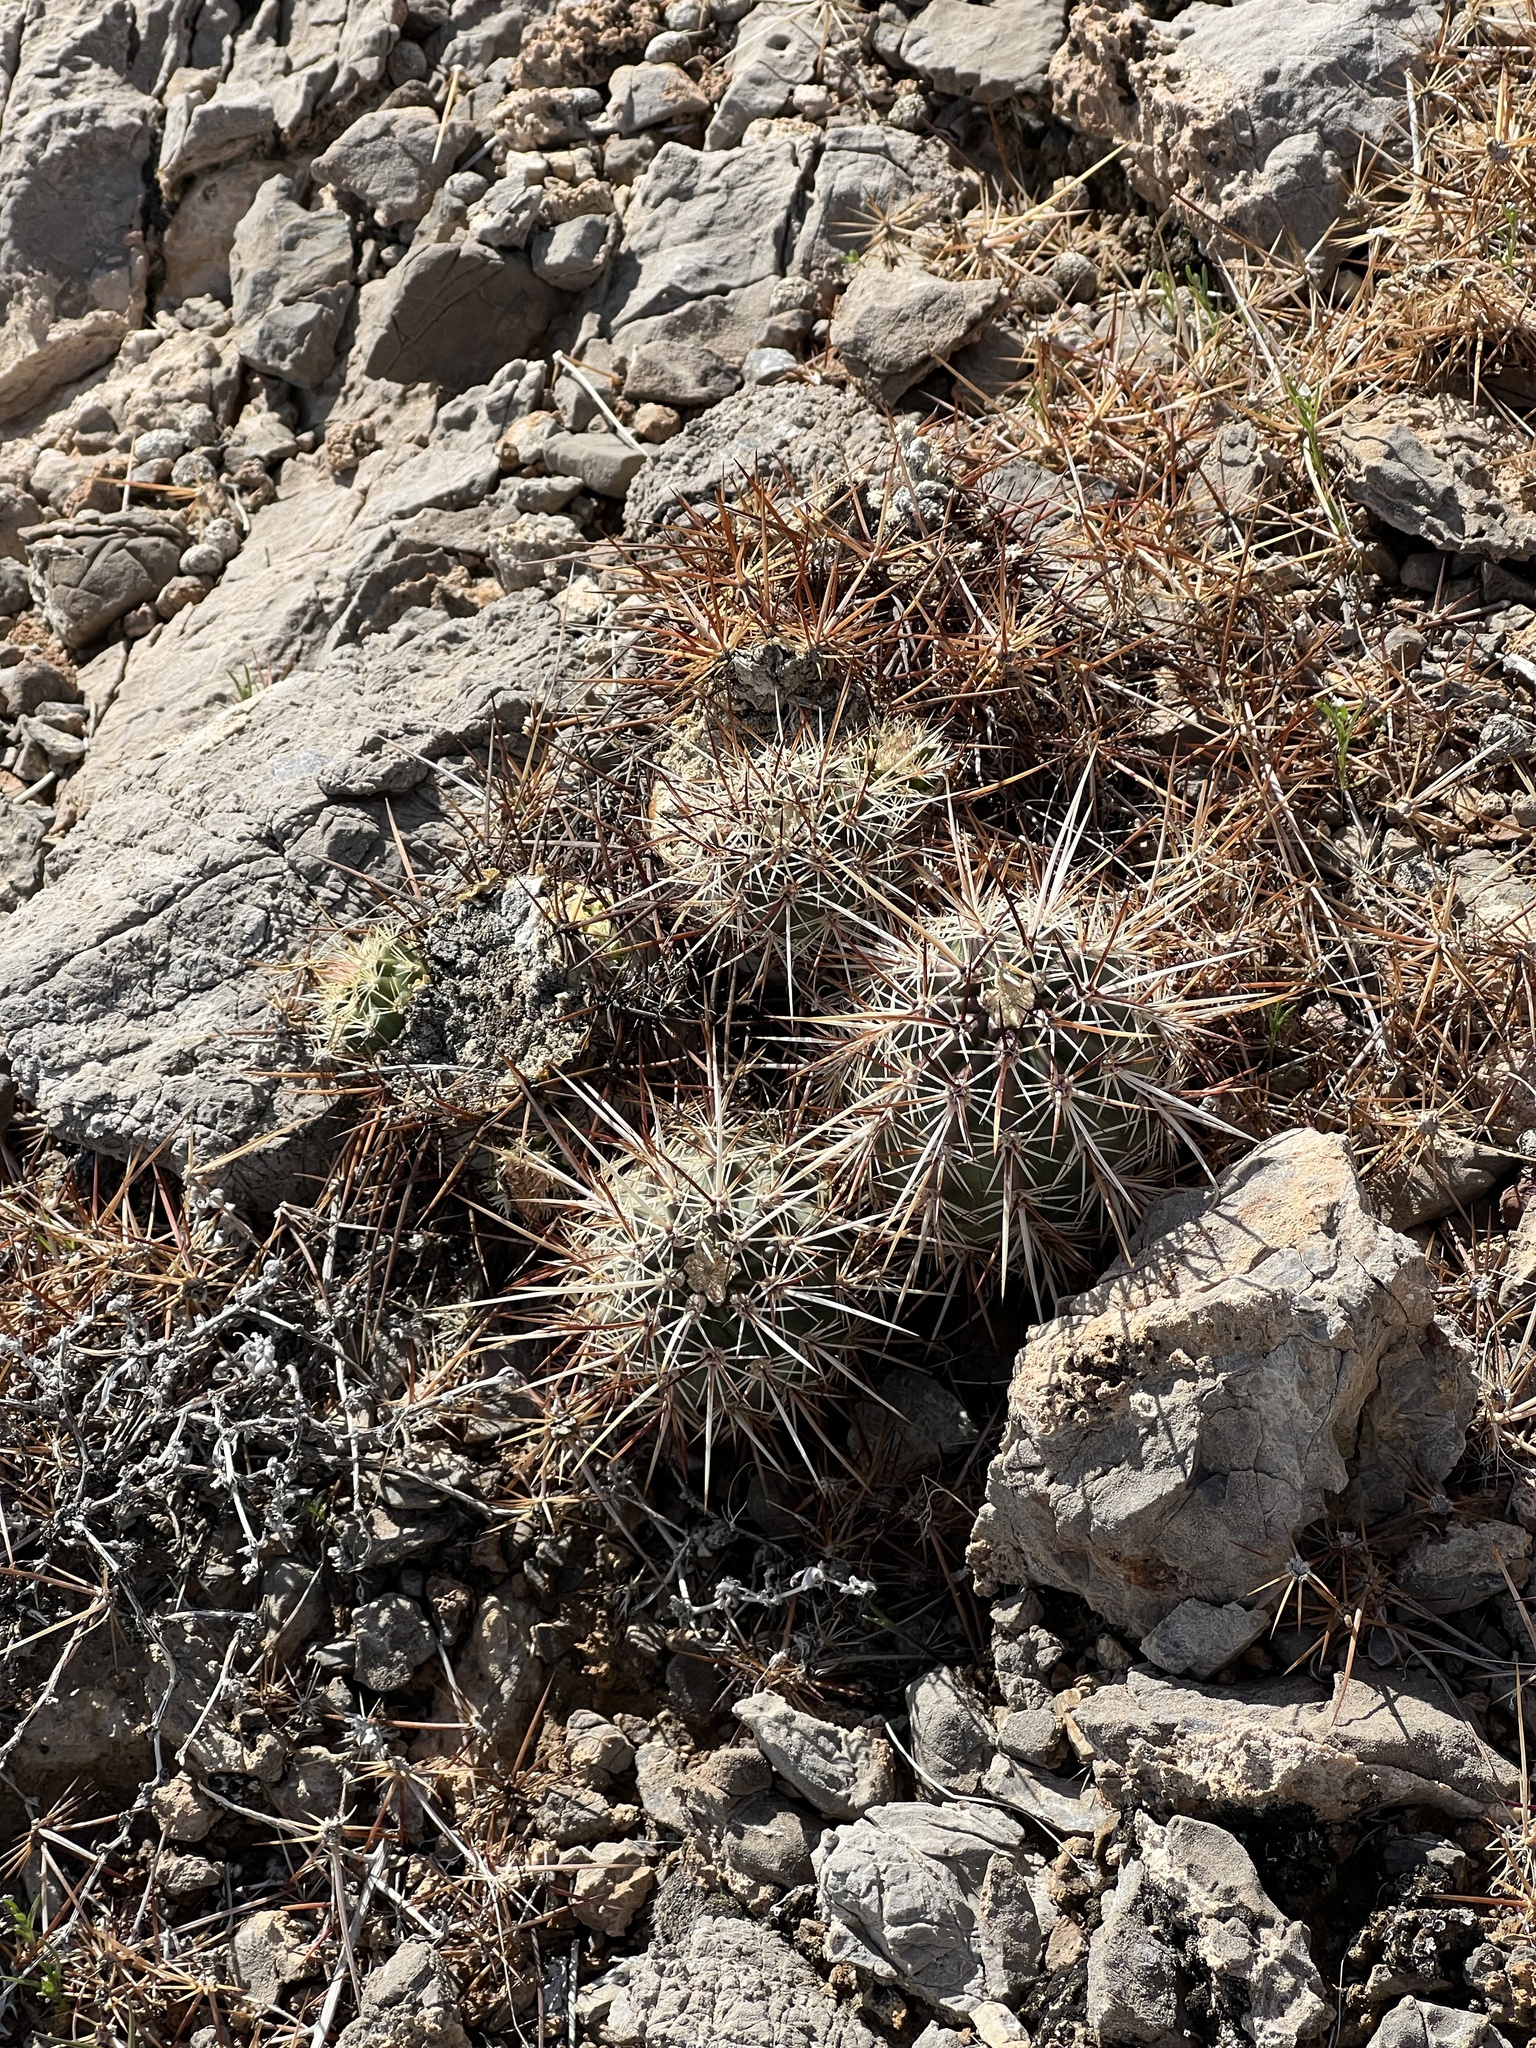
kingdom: Plantae
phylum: Tracheophyta
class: Magnoliopsida
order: Caryophyllales
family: Cactaceae
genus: Echinocereus
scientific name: Echinocereus engelmannii
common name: Engelmann's hedgehog cactus
